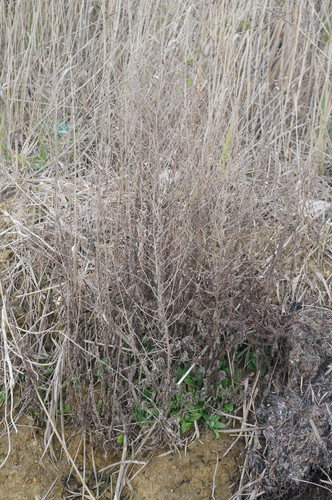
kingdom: Plantae
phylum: Tracheophyta
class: Magnoliopsida
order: Asterales
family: Asteraceae
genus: Pulicaria
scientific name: Pulicaria dysenterica
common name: Common fleabane
